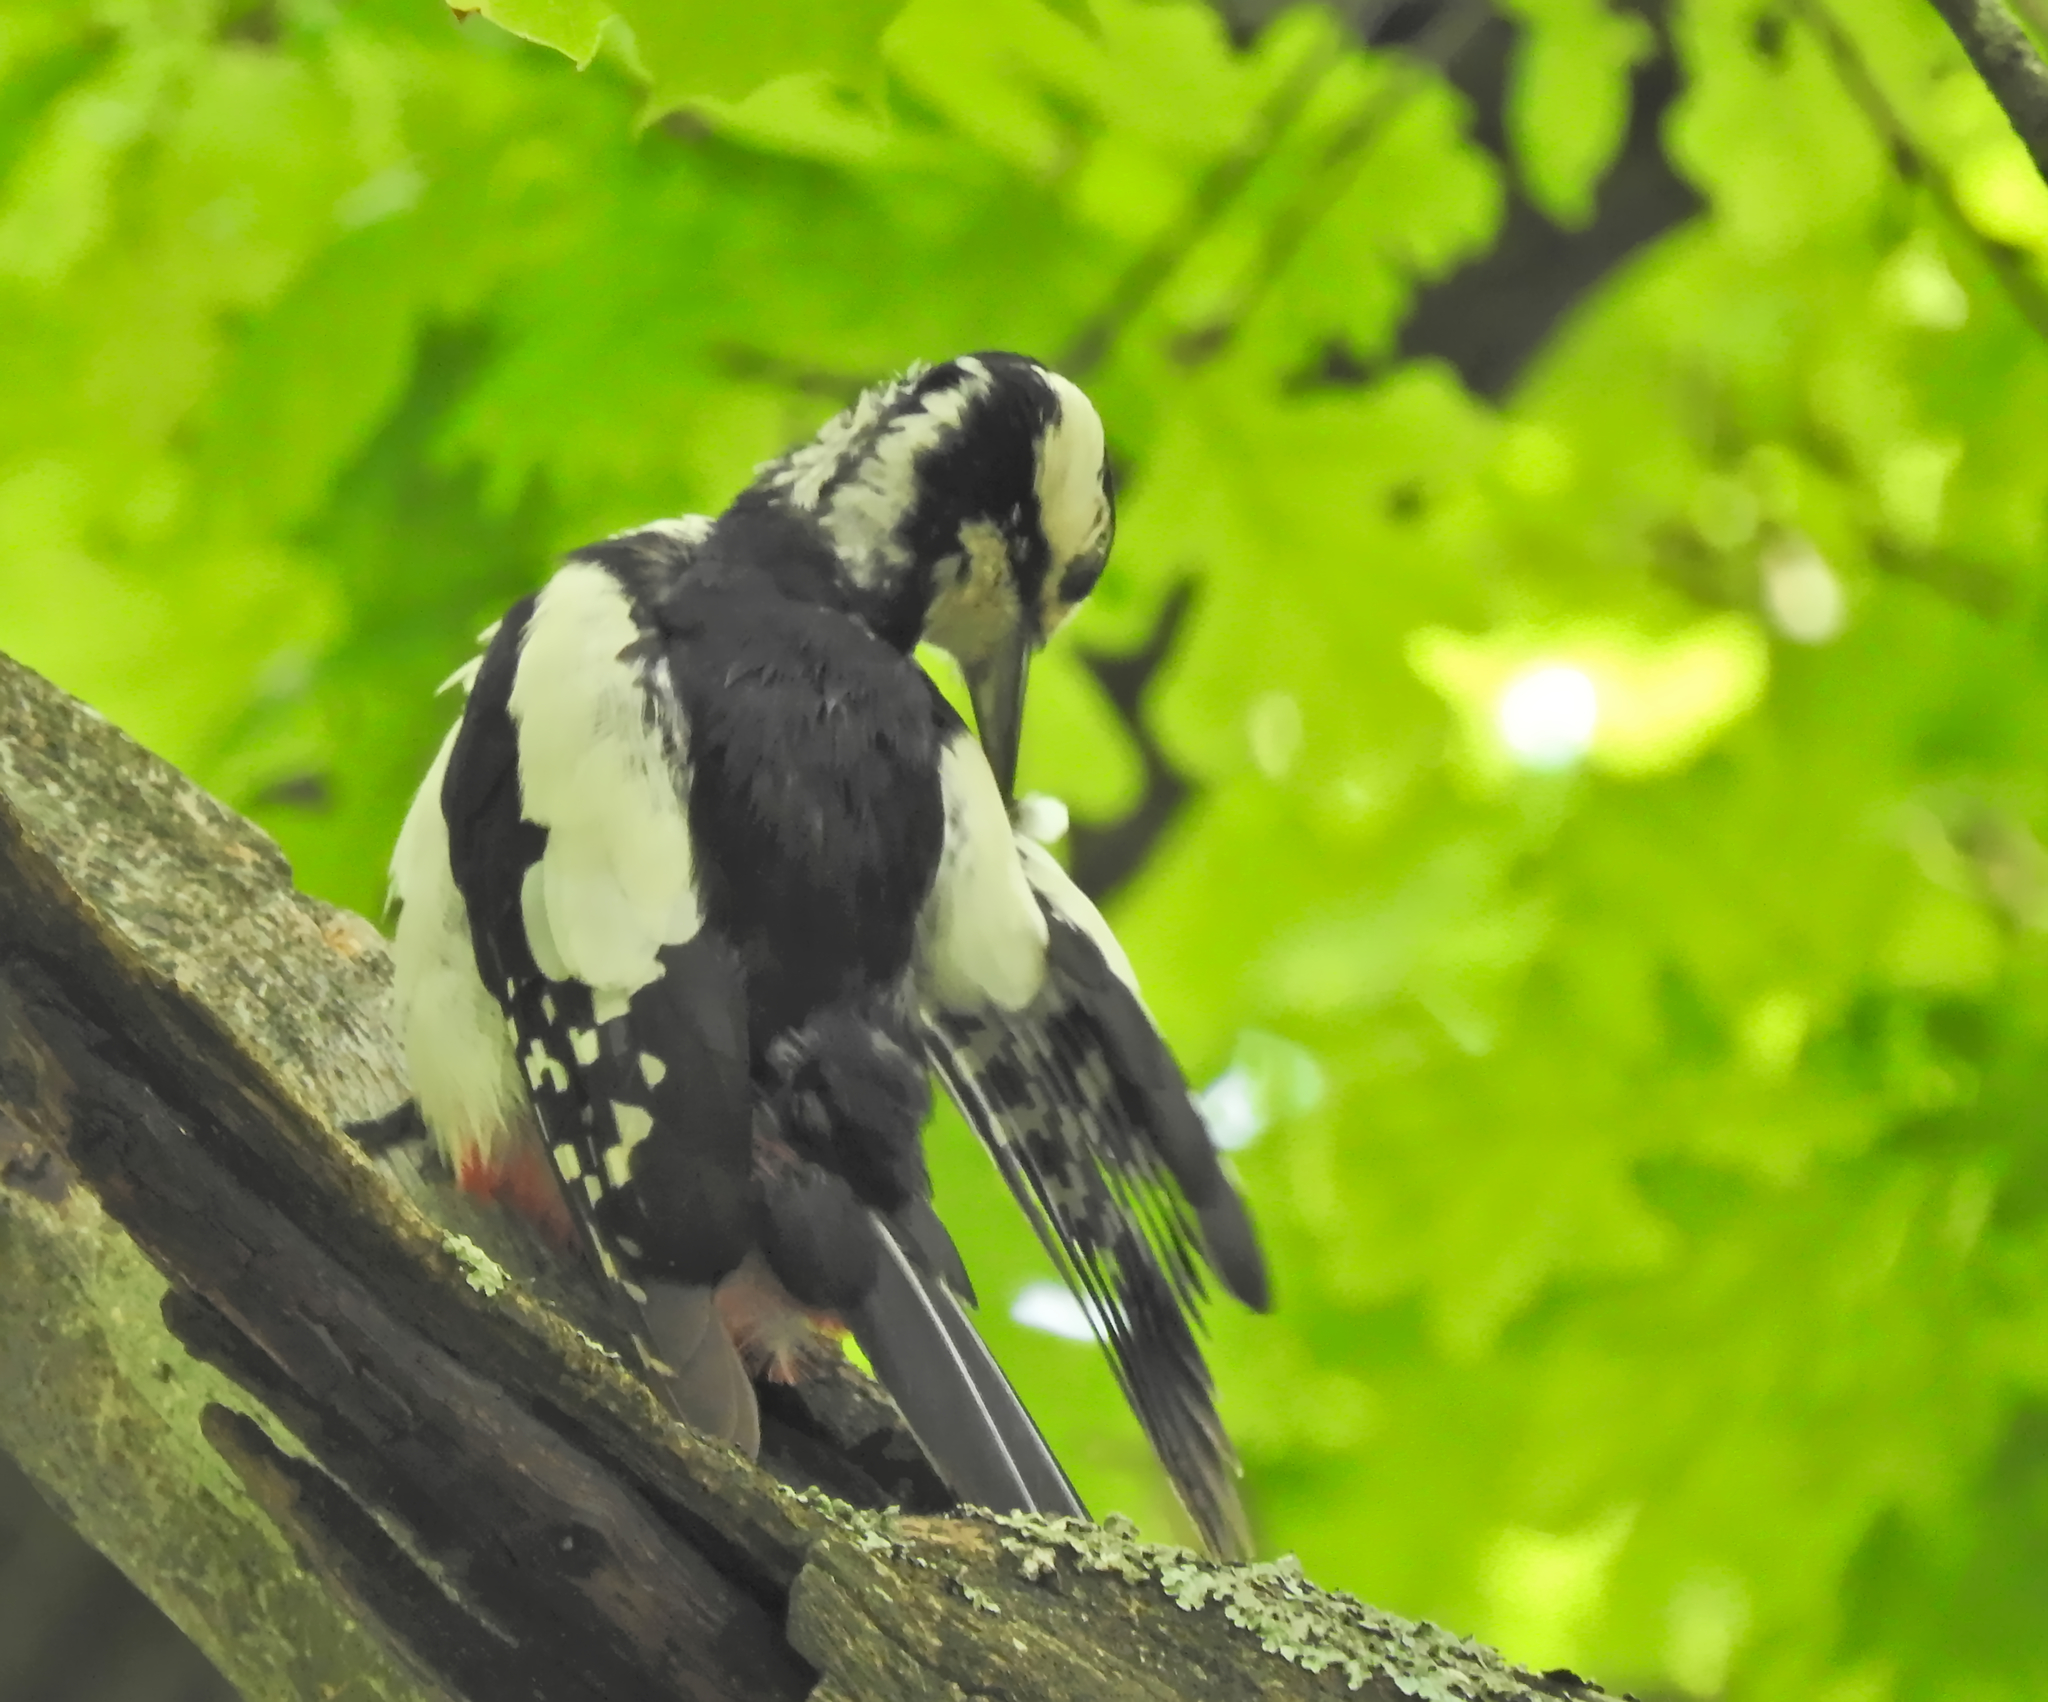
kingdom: Animalia
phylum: Chordata
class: Aves
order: Piciformes
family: Picidae
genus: Dendrocopos
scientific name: Dendrocopos major
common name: Great spotted woodpecker
